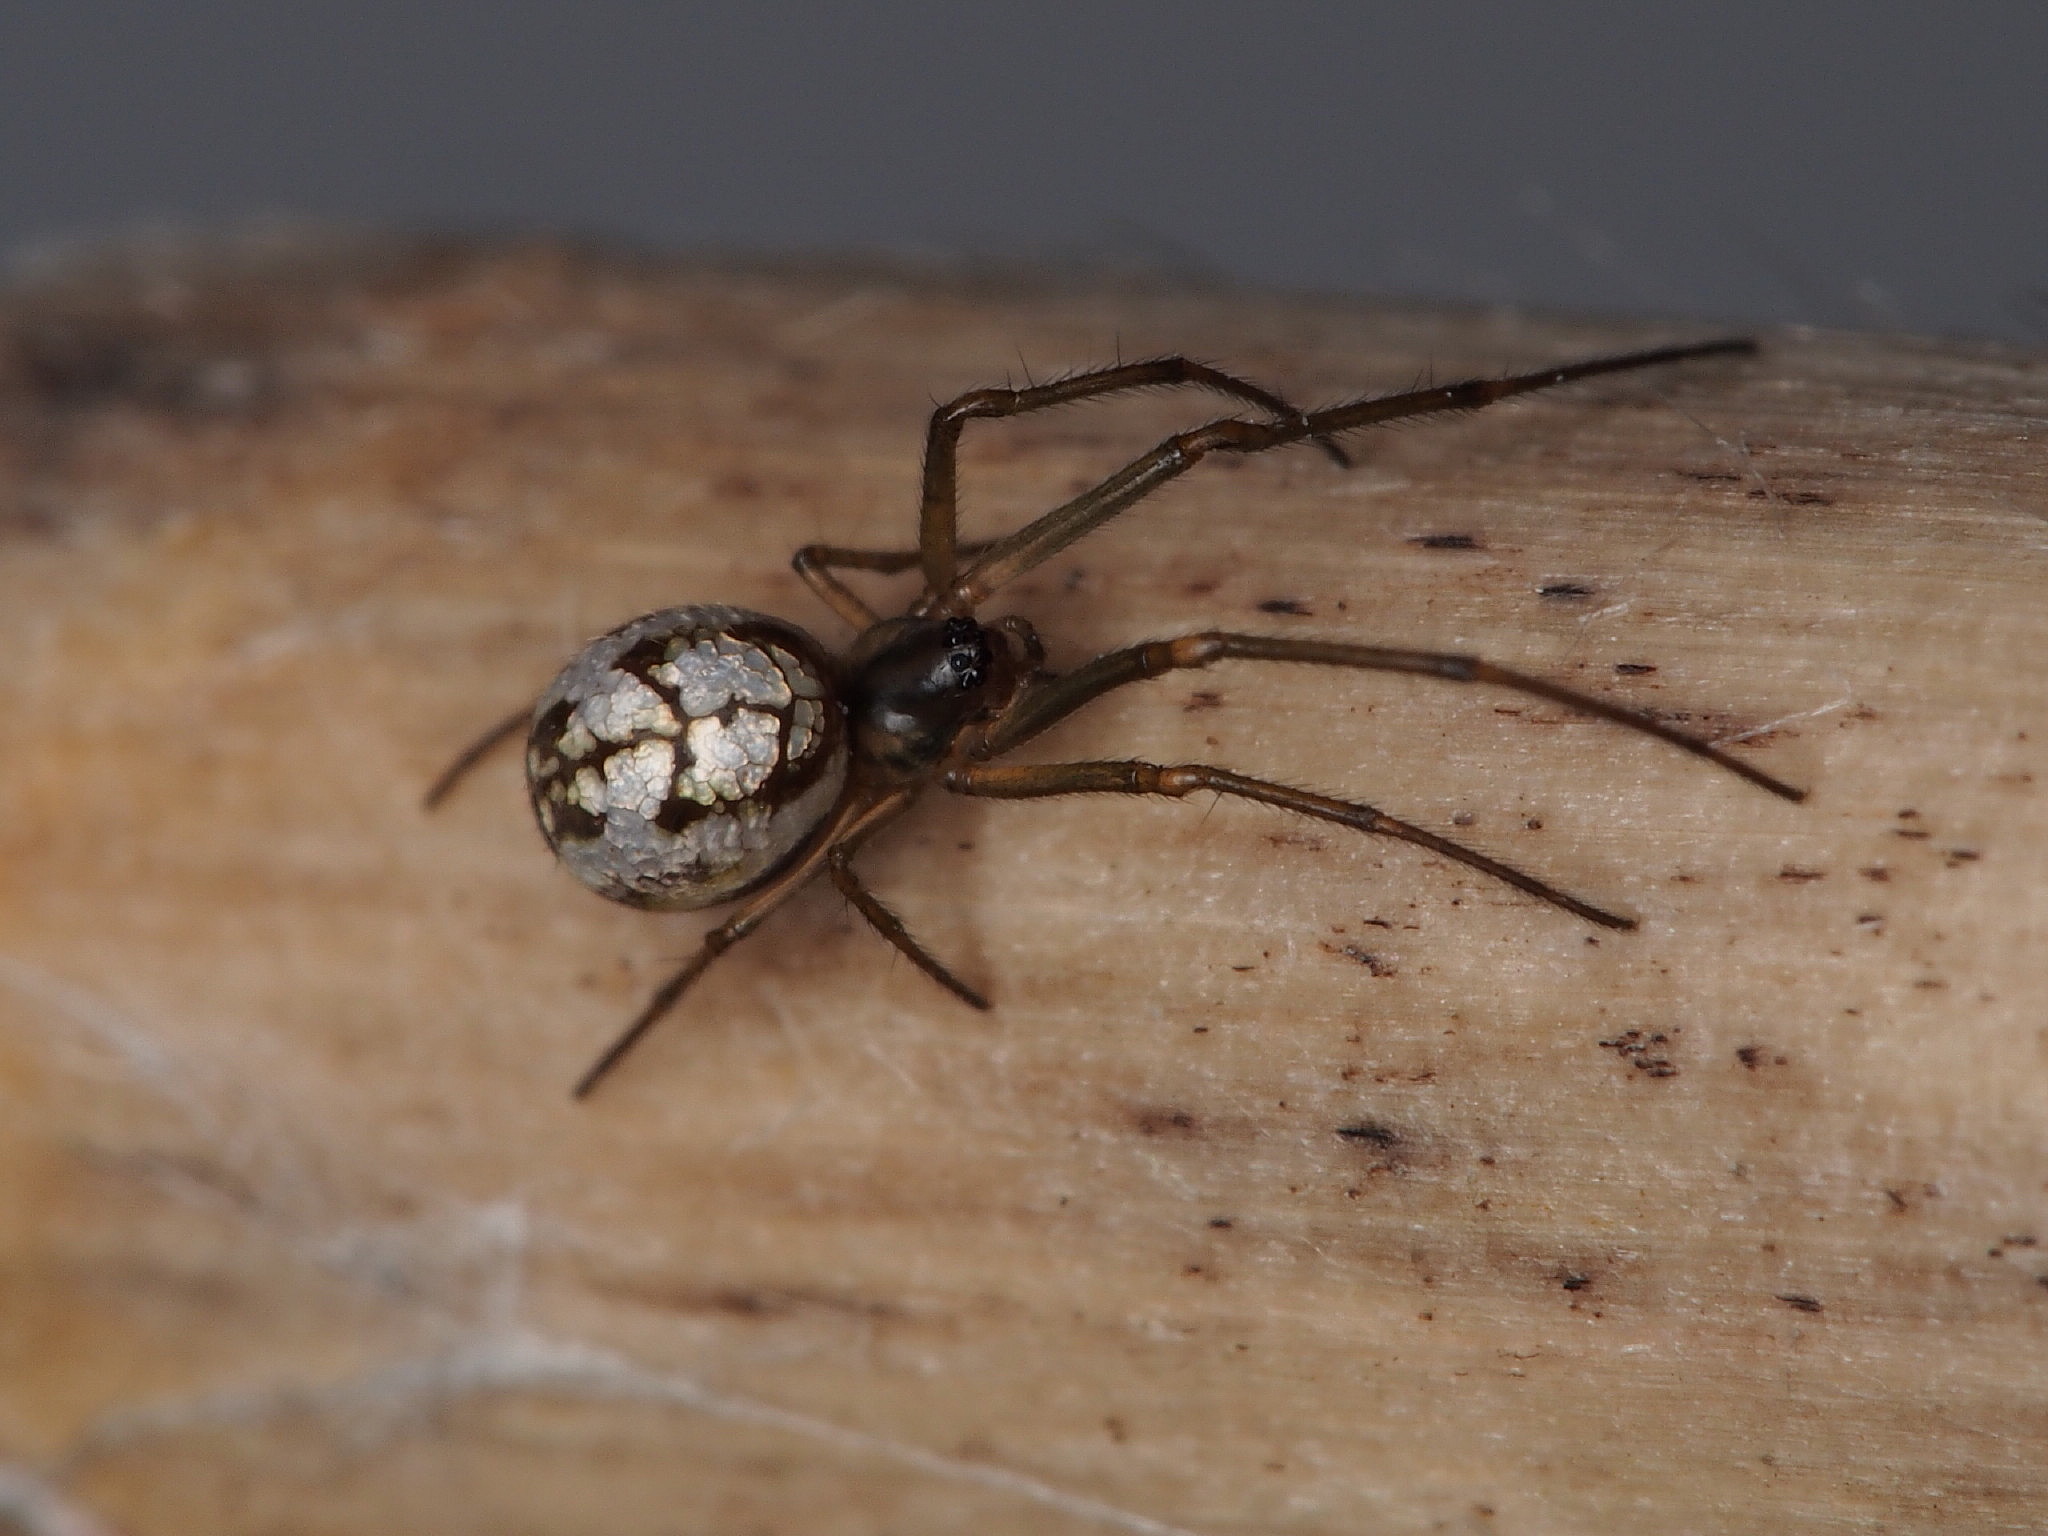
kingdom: Animalia
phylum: Arthropoda
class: Arachnida
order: Araneae
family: Tetragnathidae
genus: Nanometa
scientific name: Nanometa forsteri
